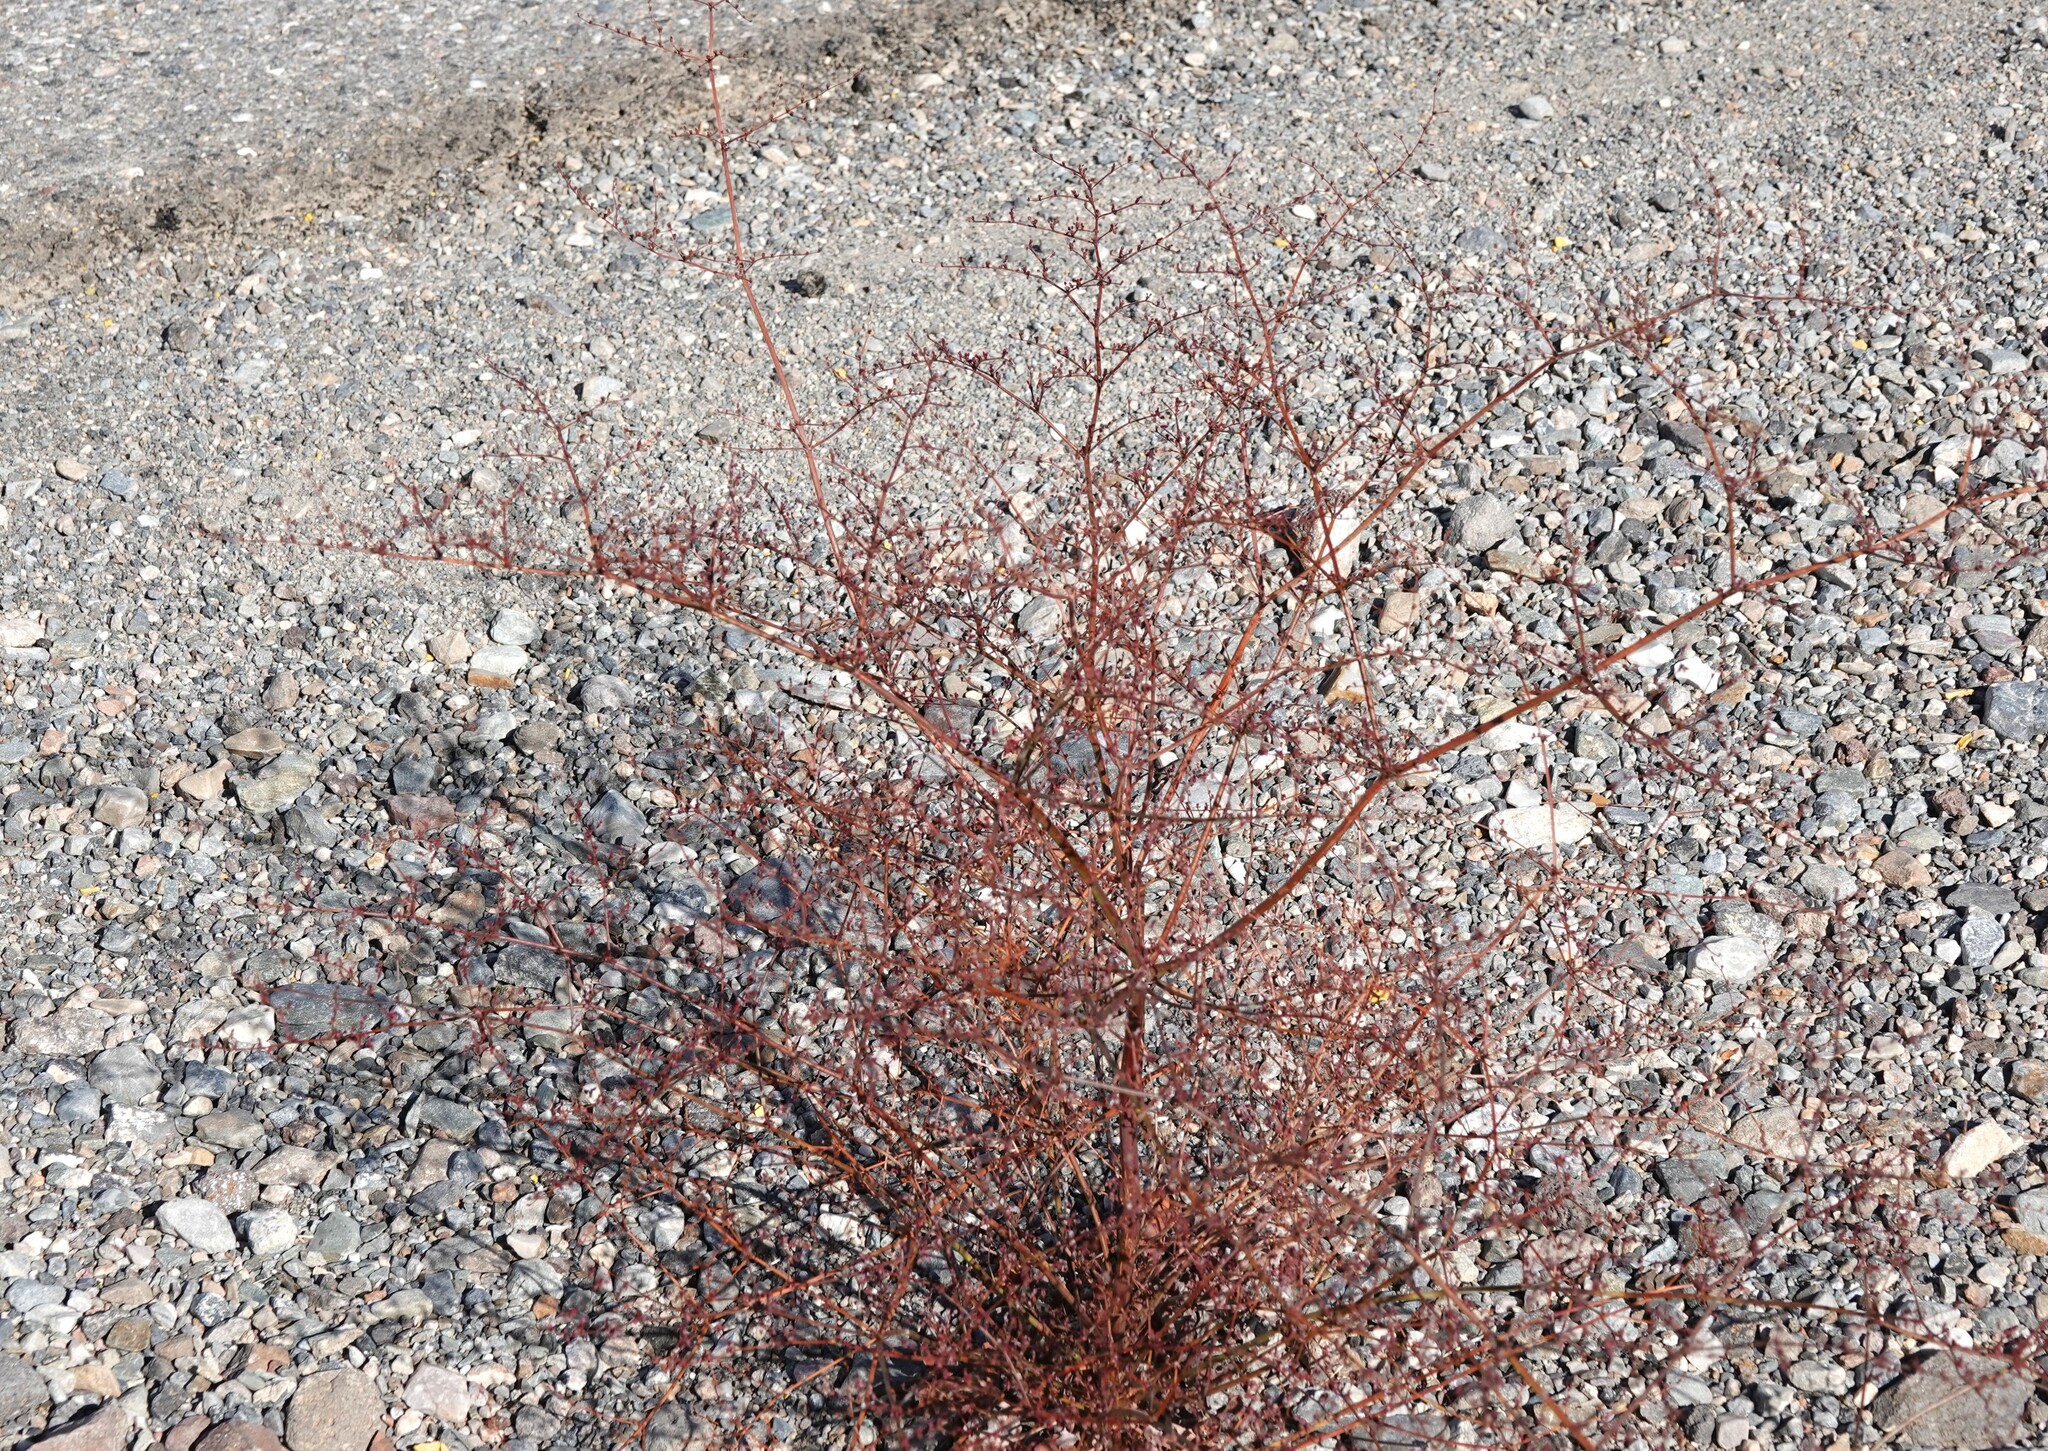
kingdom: Plantae
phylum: Tracheophyta
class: Magnoliopsida
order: Caryophyllales
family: Polygonaceae
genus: Eriogonum
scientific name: Eriogonum hoffmannii
